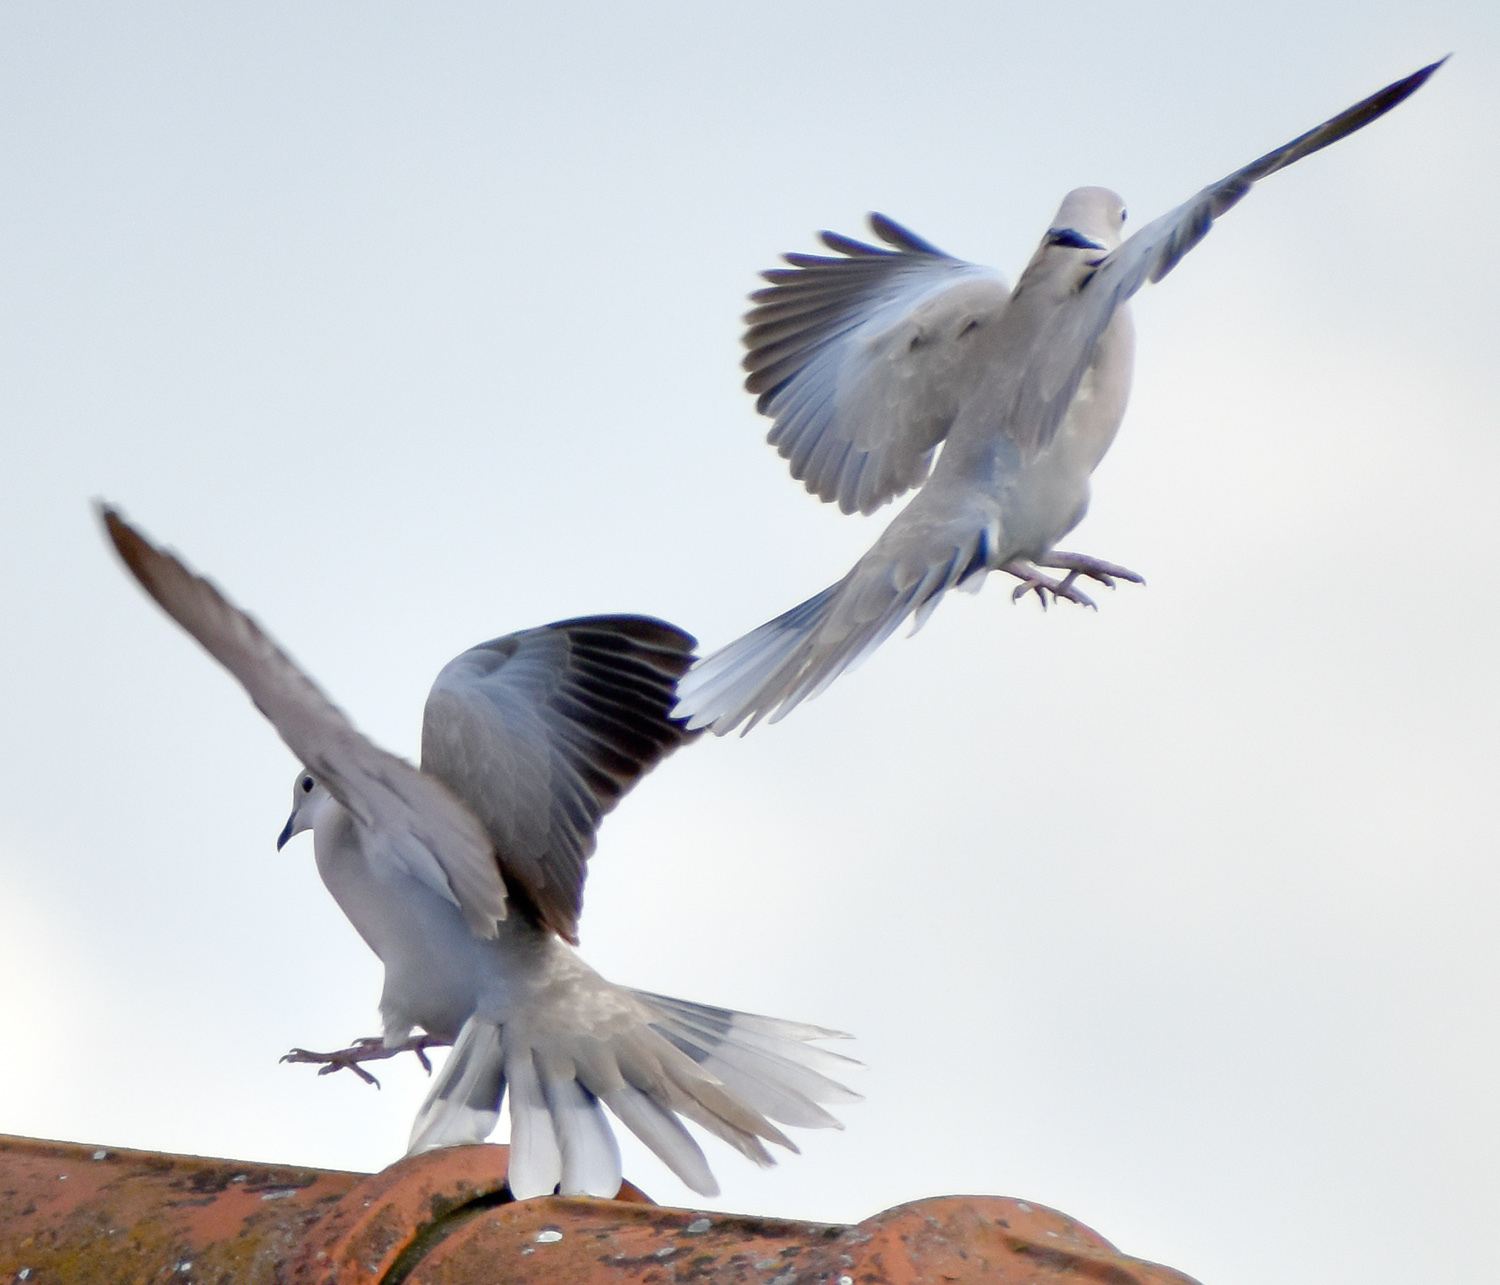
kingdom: Animalia
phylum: Chordata
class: Aves
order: Columbiformes
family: Columbidae
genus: Streptopelia
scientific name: Streptopelia decaocto
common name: Eurasian collared dove
